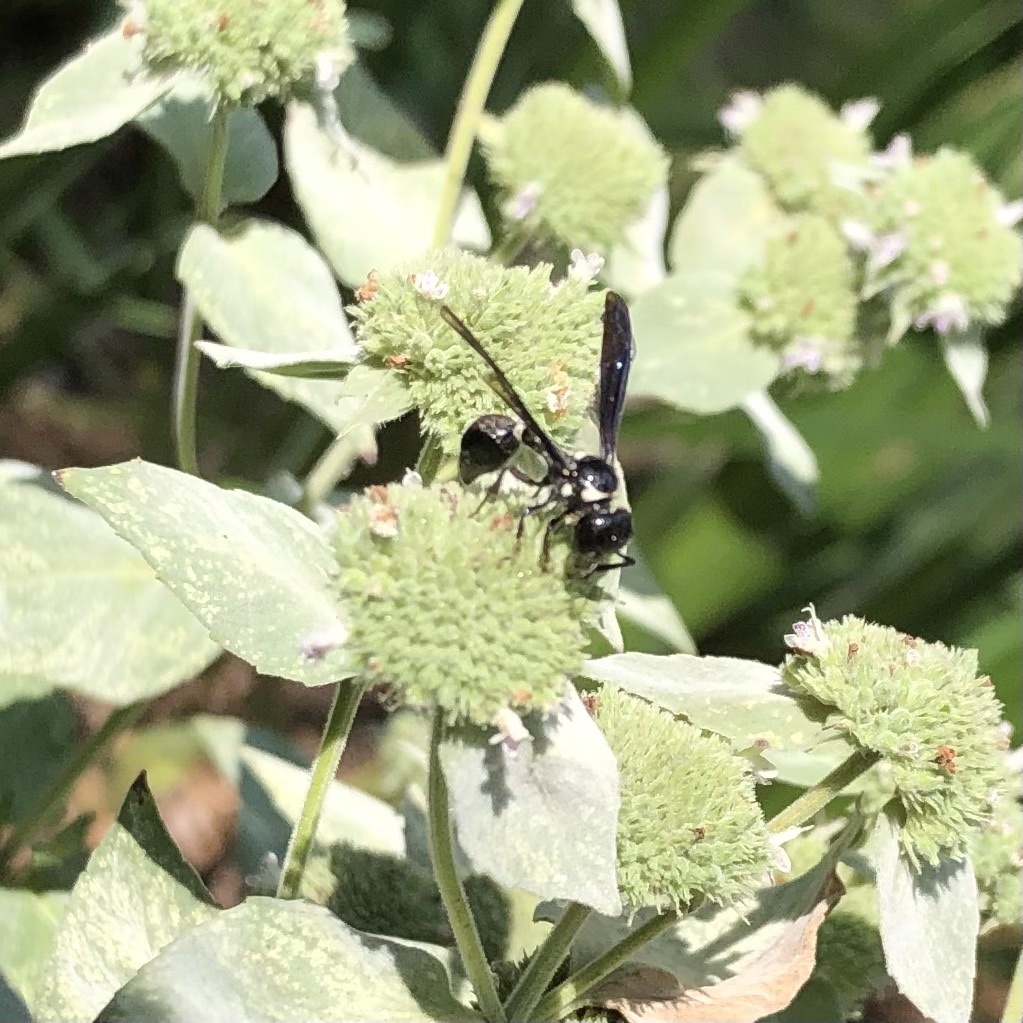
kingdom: Animalia
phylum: Arthropoda
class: Insecta
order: Hymenoptera
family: Eumenidae
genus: Zethus
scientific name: Zethus spinipes
